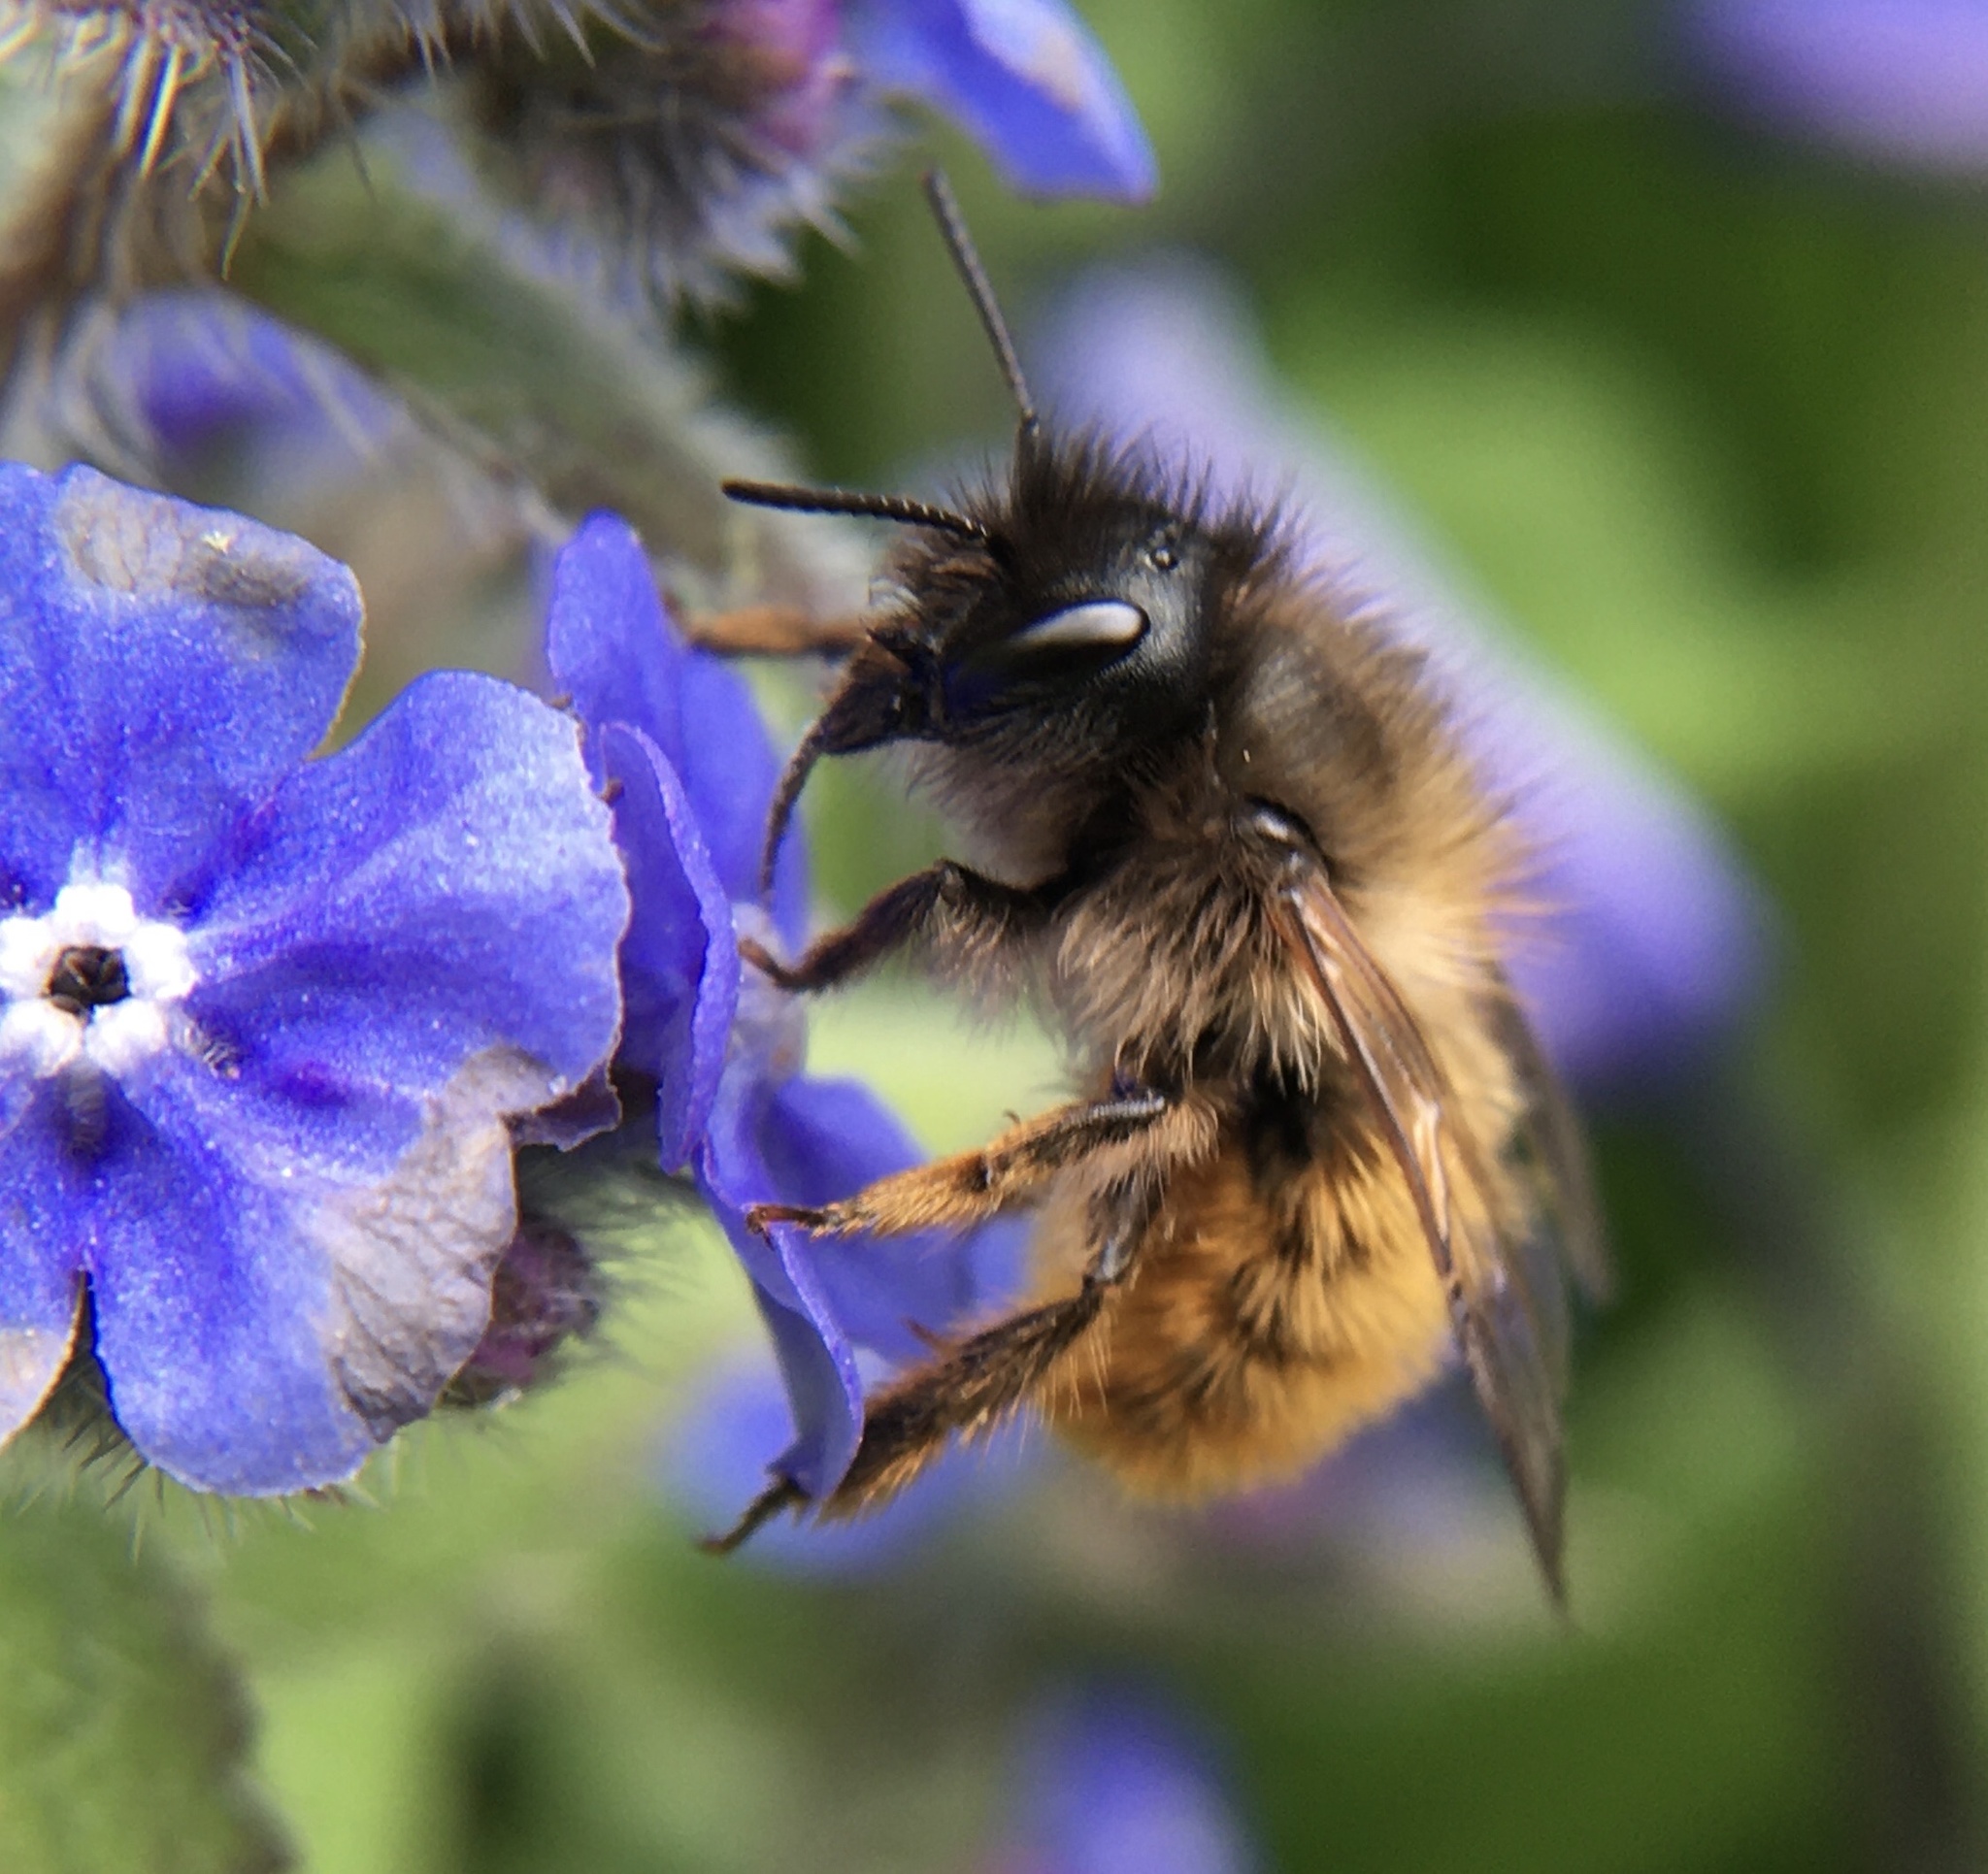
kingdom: Animalia
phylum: Arthropoda
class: Insecta
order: Hymenoptera
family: Megachilidae
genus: Osmia
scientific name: Osmia bicornis
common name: Red mason bee
